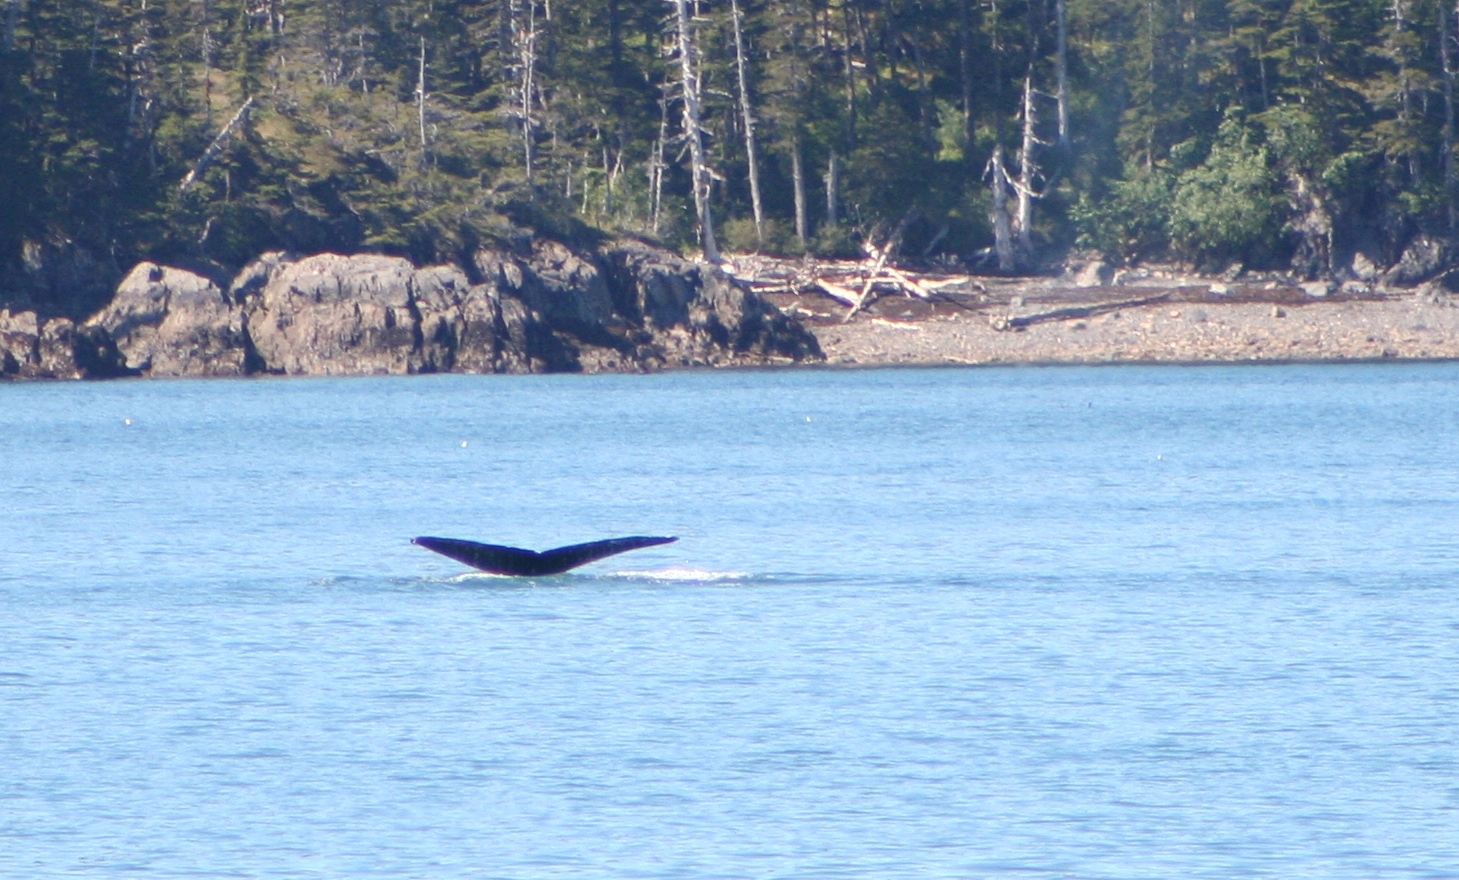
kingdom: Animalia
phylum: Chordata
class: Mammalia
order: Cetacea
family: Balaenopteridae
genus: Megaptera
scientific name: Megaptera novaeangliae
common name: Humpback whale
